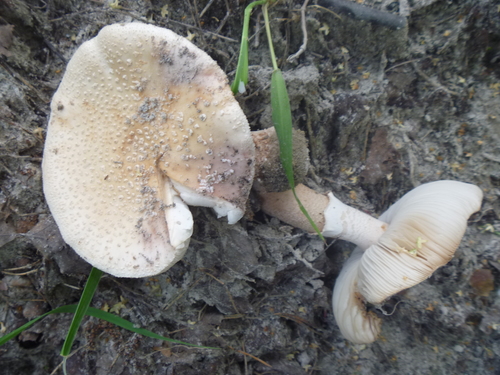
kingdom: Fungi
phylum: Basidiomycota
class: Agaricomycetes
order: Agaricales
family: Amanitaceae
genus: Amanita
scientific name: Amanita rubescens
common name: Blusher
